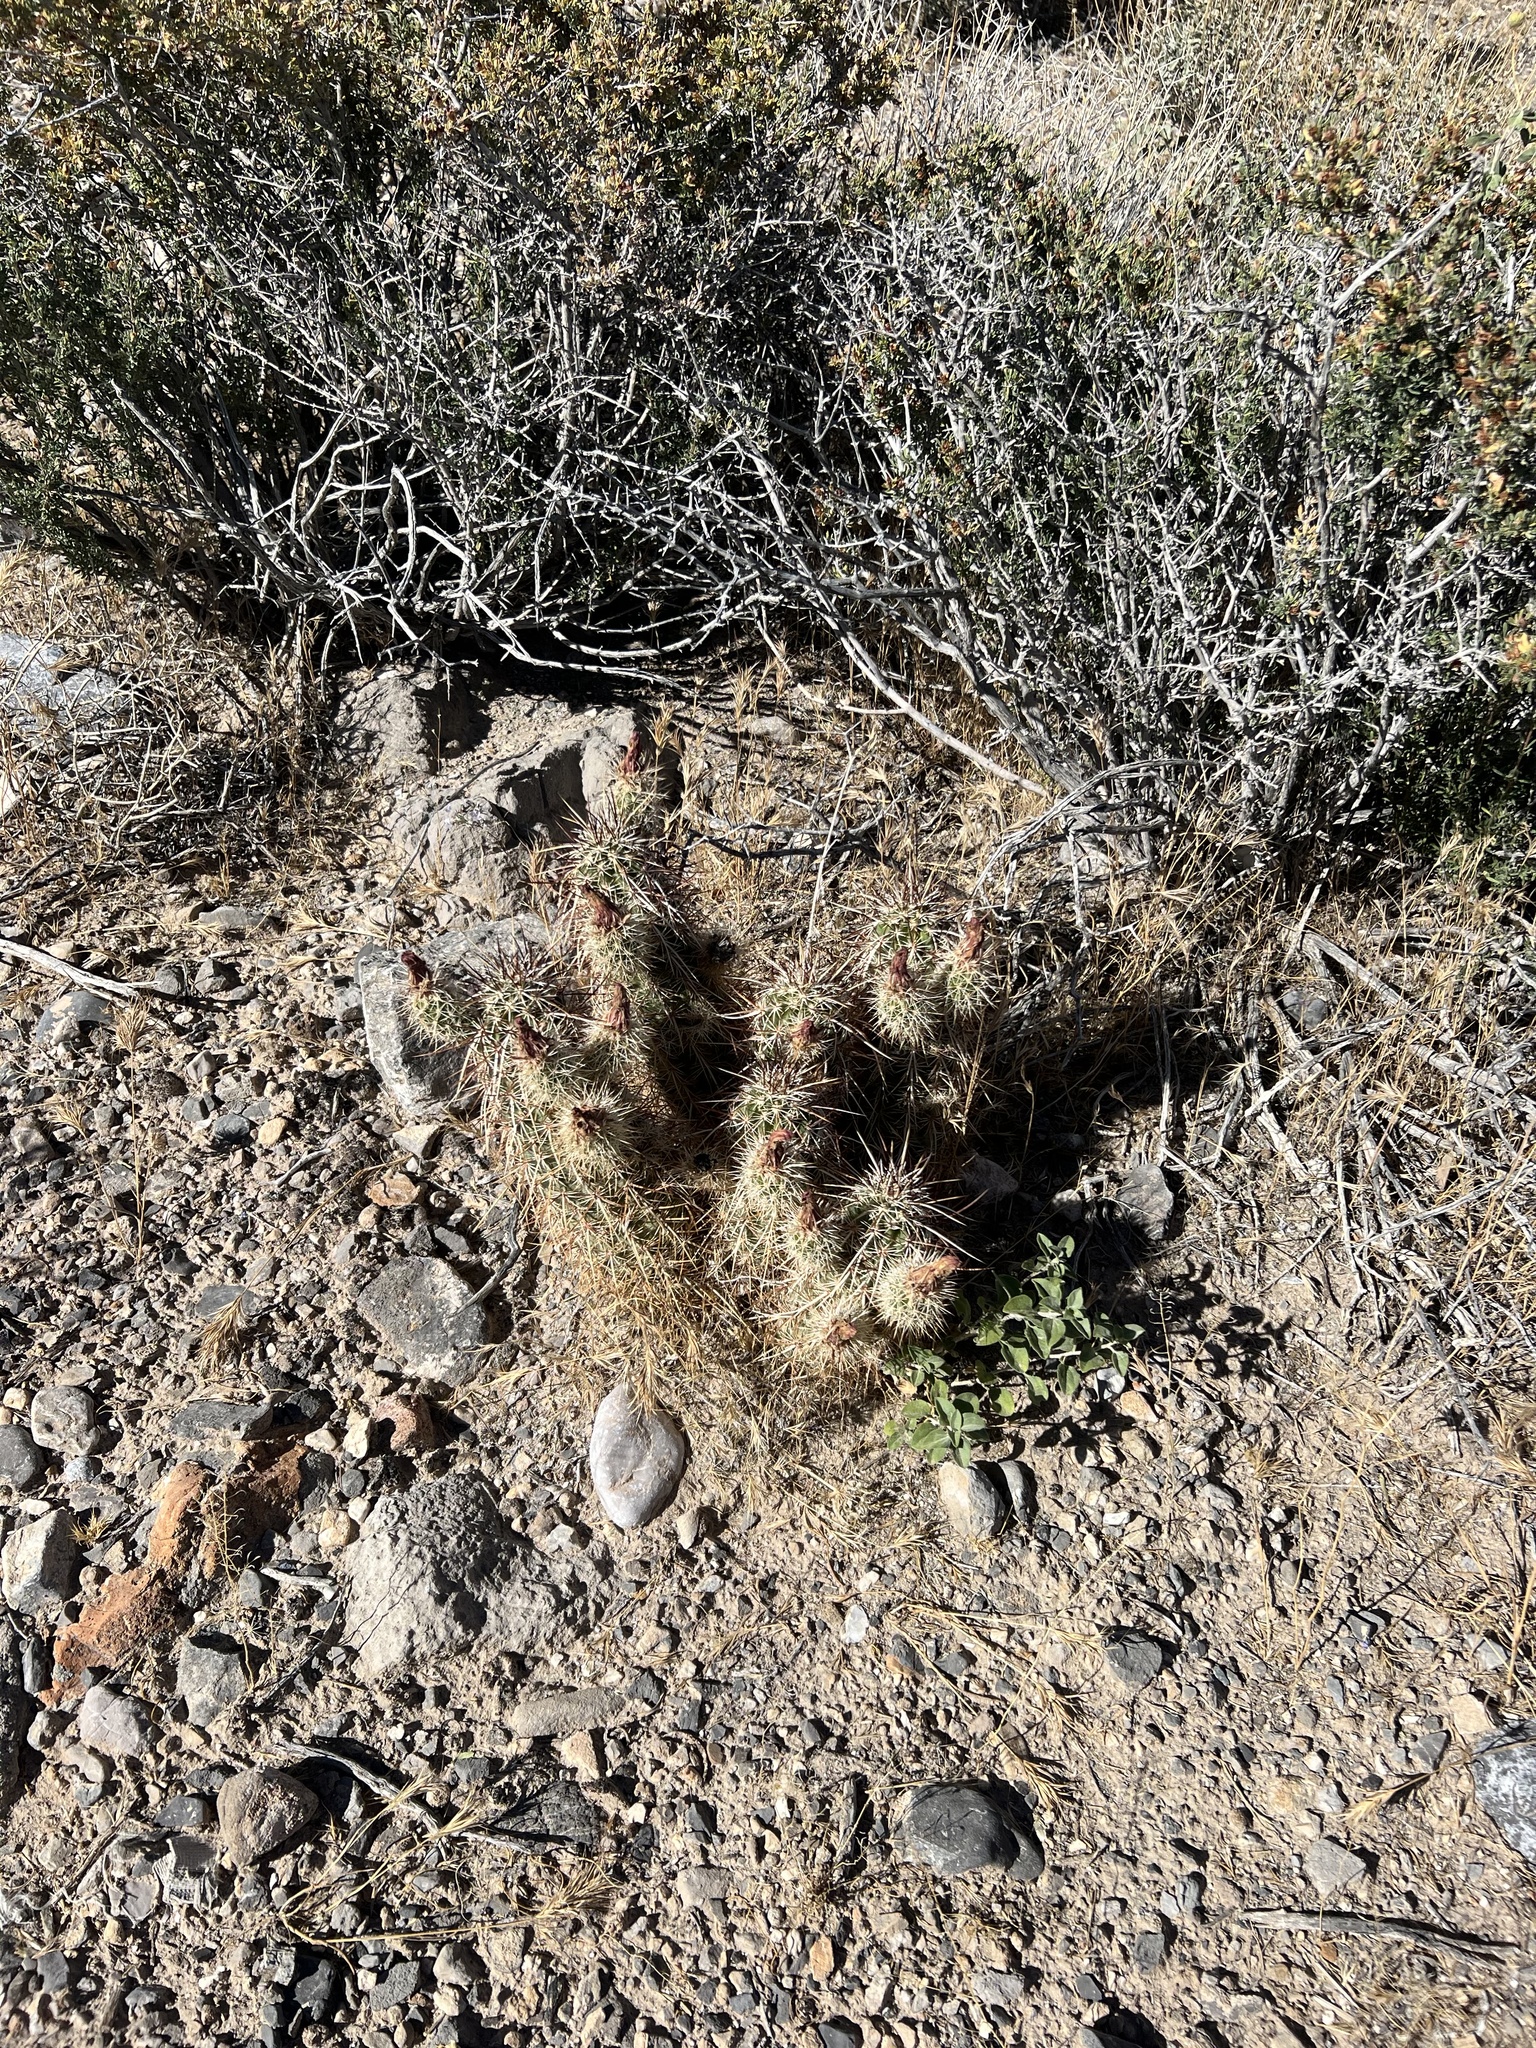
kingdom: Plantae
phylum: Tracheophyta
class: Magnoliopsida
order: Caryophyllales
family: Cactaceae
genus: Echinocereus
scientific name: Echinocereus engelmannii
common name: Engelmann's hedgehog cactus
